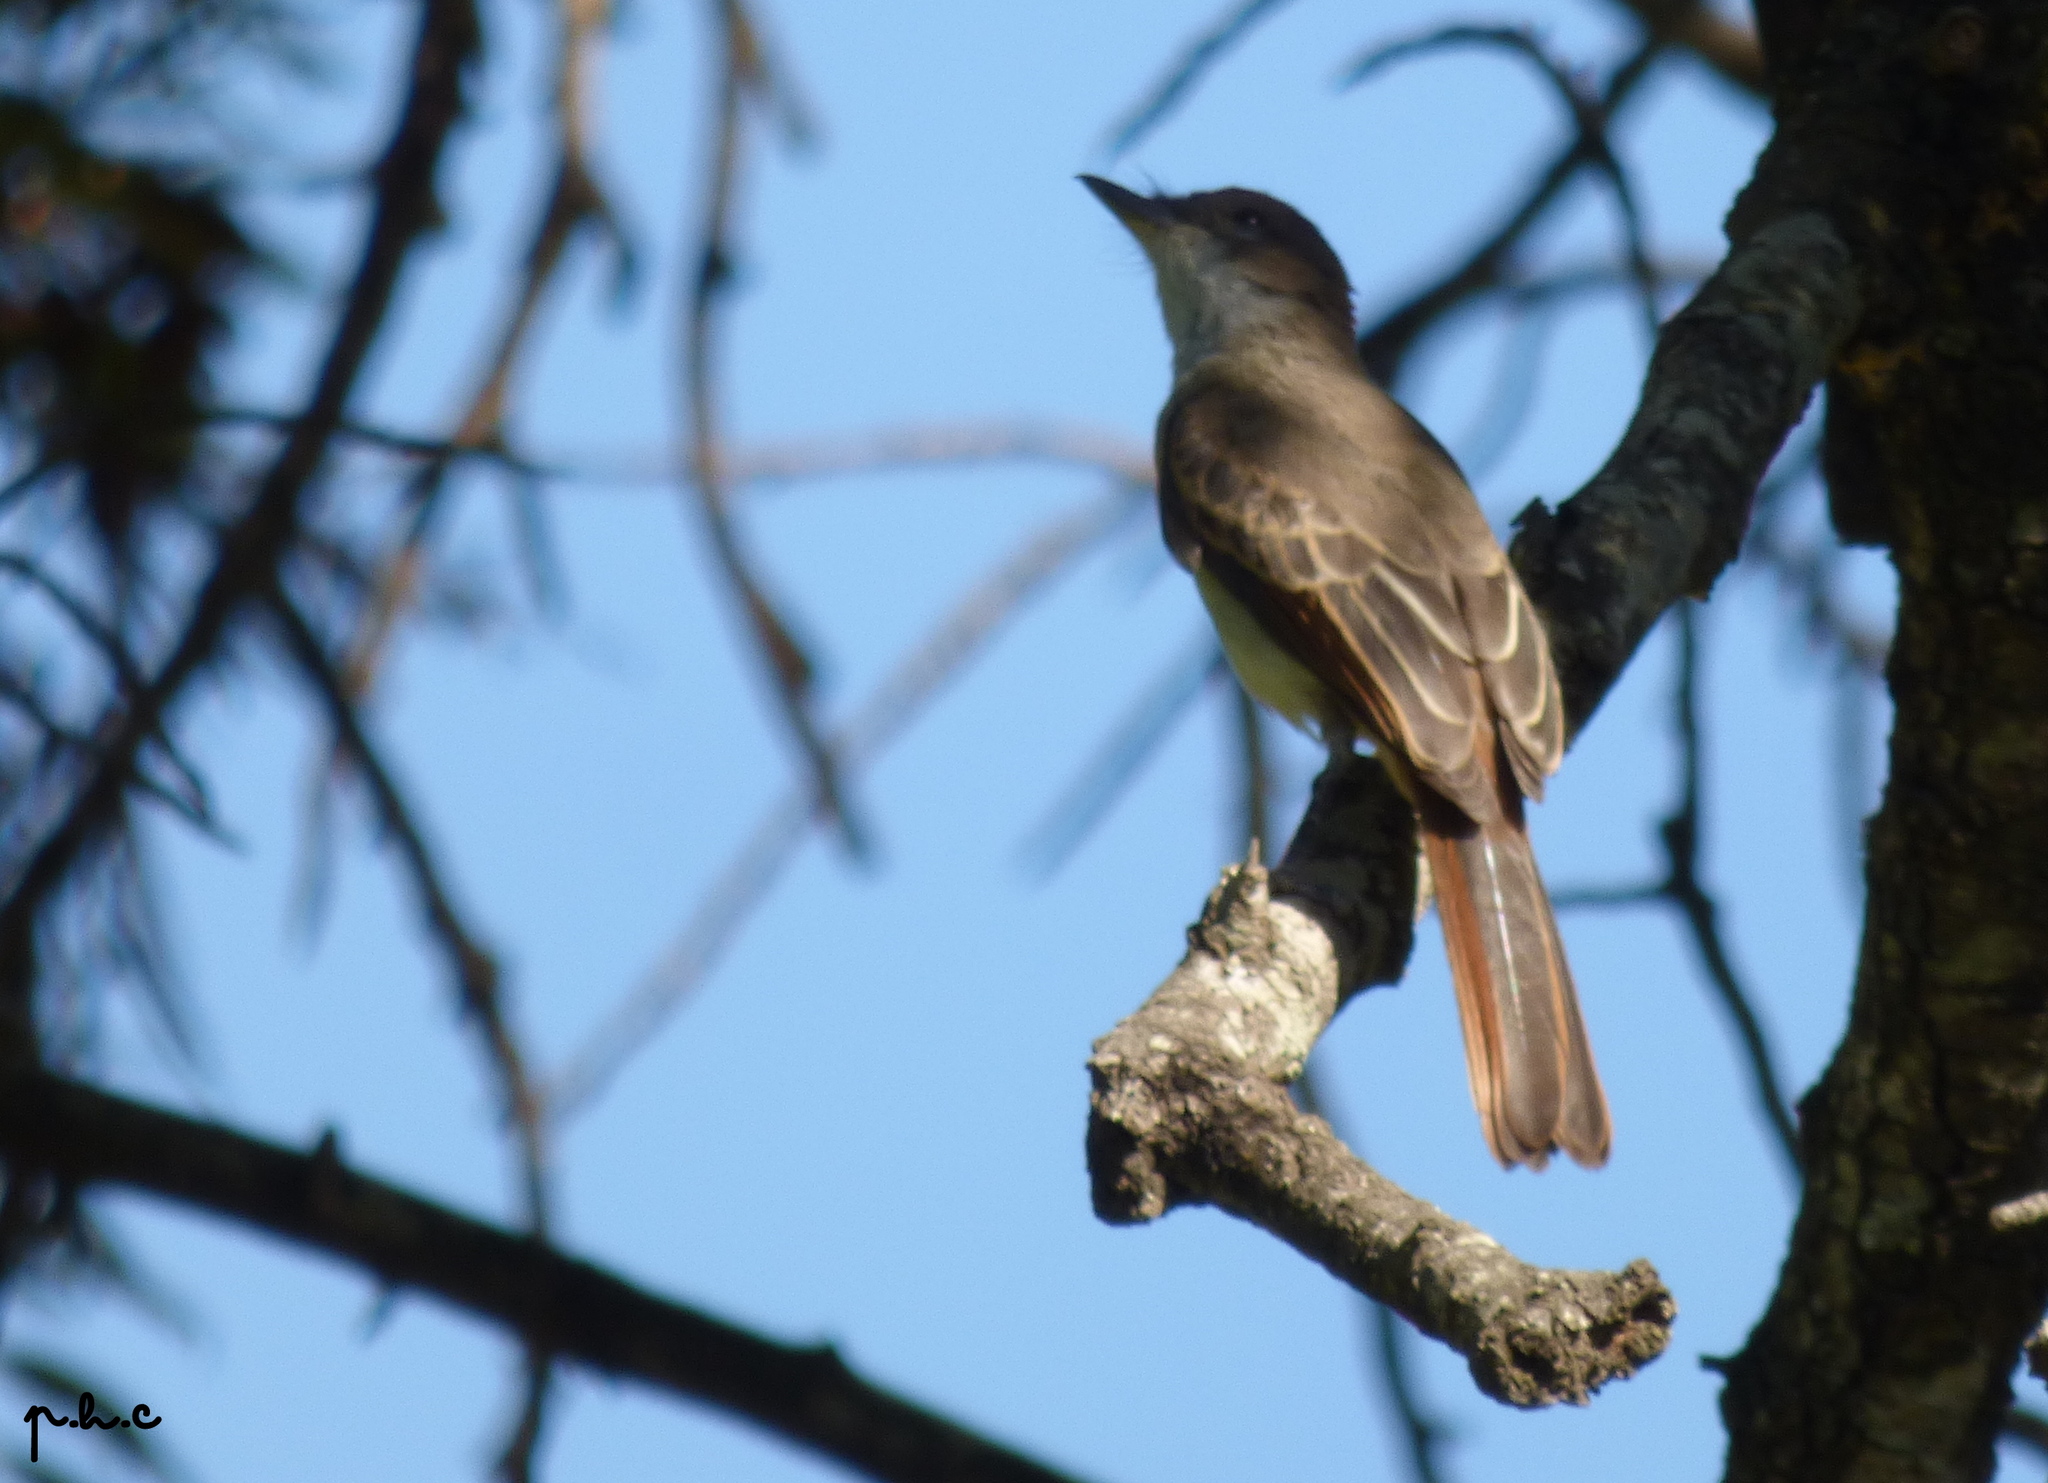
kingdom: Animalia
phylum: Chordata
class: Aves
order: Passeriformes
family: Tyrannidae
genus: Myiarchus
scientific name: Myiarchus swainsoni
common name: Swainson's flycatcher
